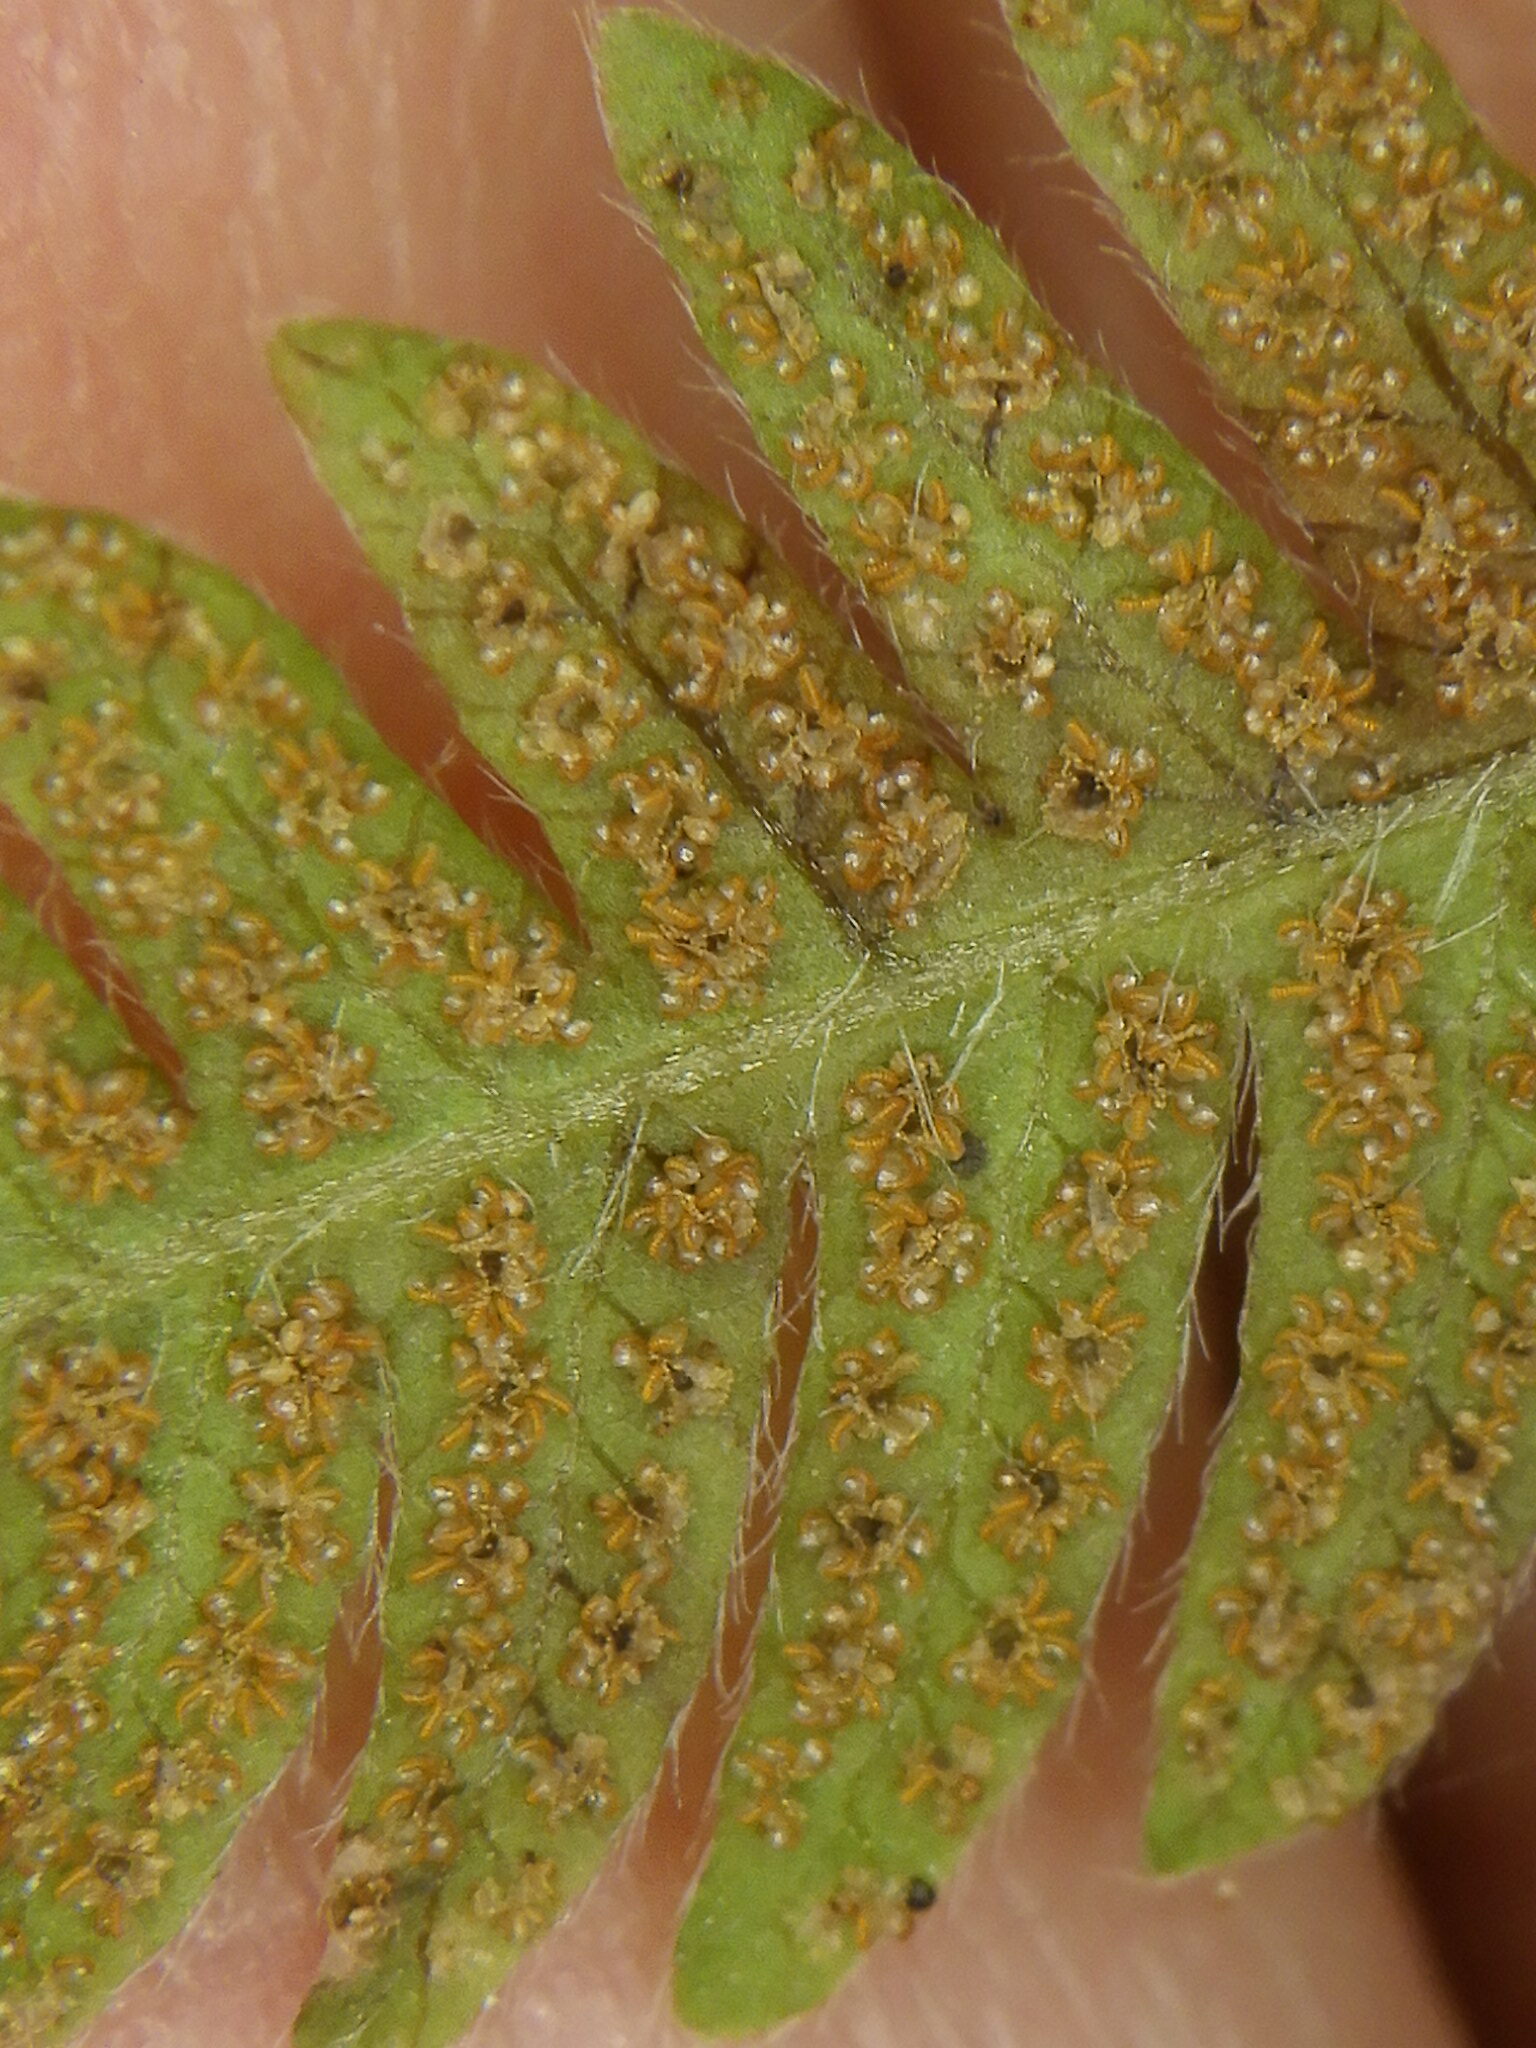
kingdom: Plantae
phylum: Tracheophyta
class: Polypodiopsida
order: Polypodiales
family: Thelypteridaceae
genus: Amauropelta
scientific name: Amauropelta noveboracensis
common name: New york fern
